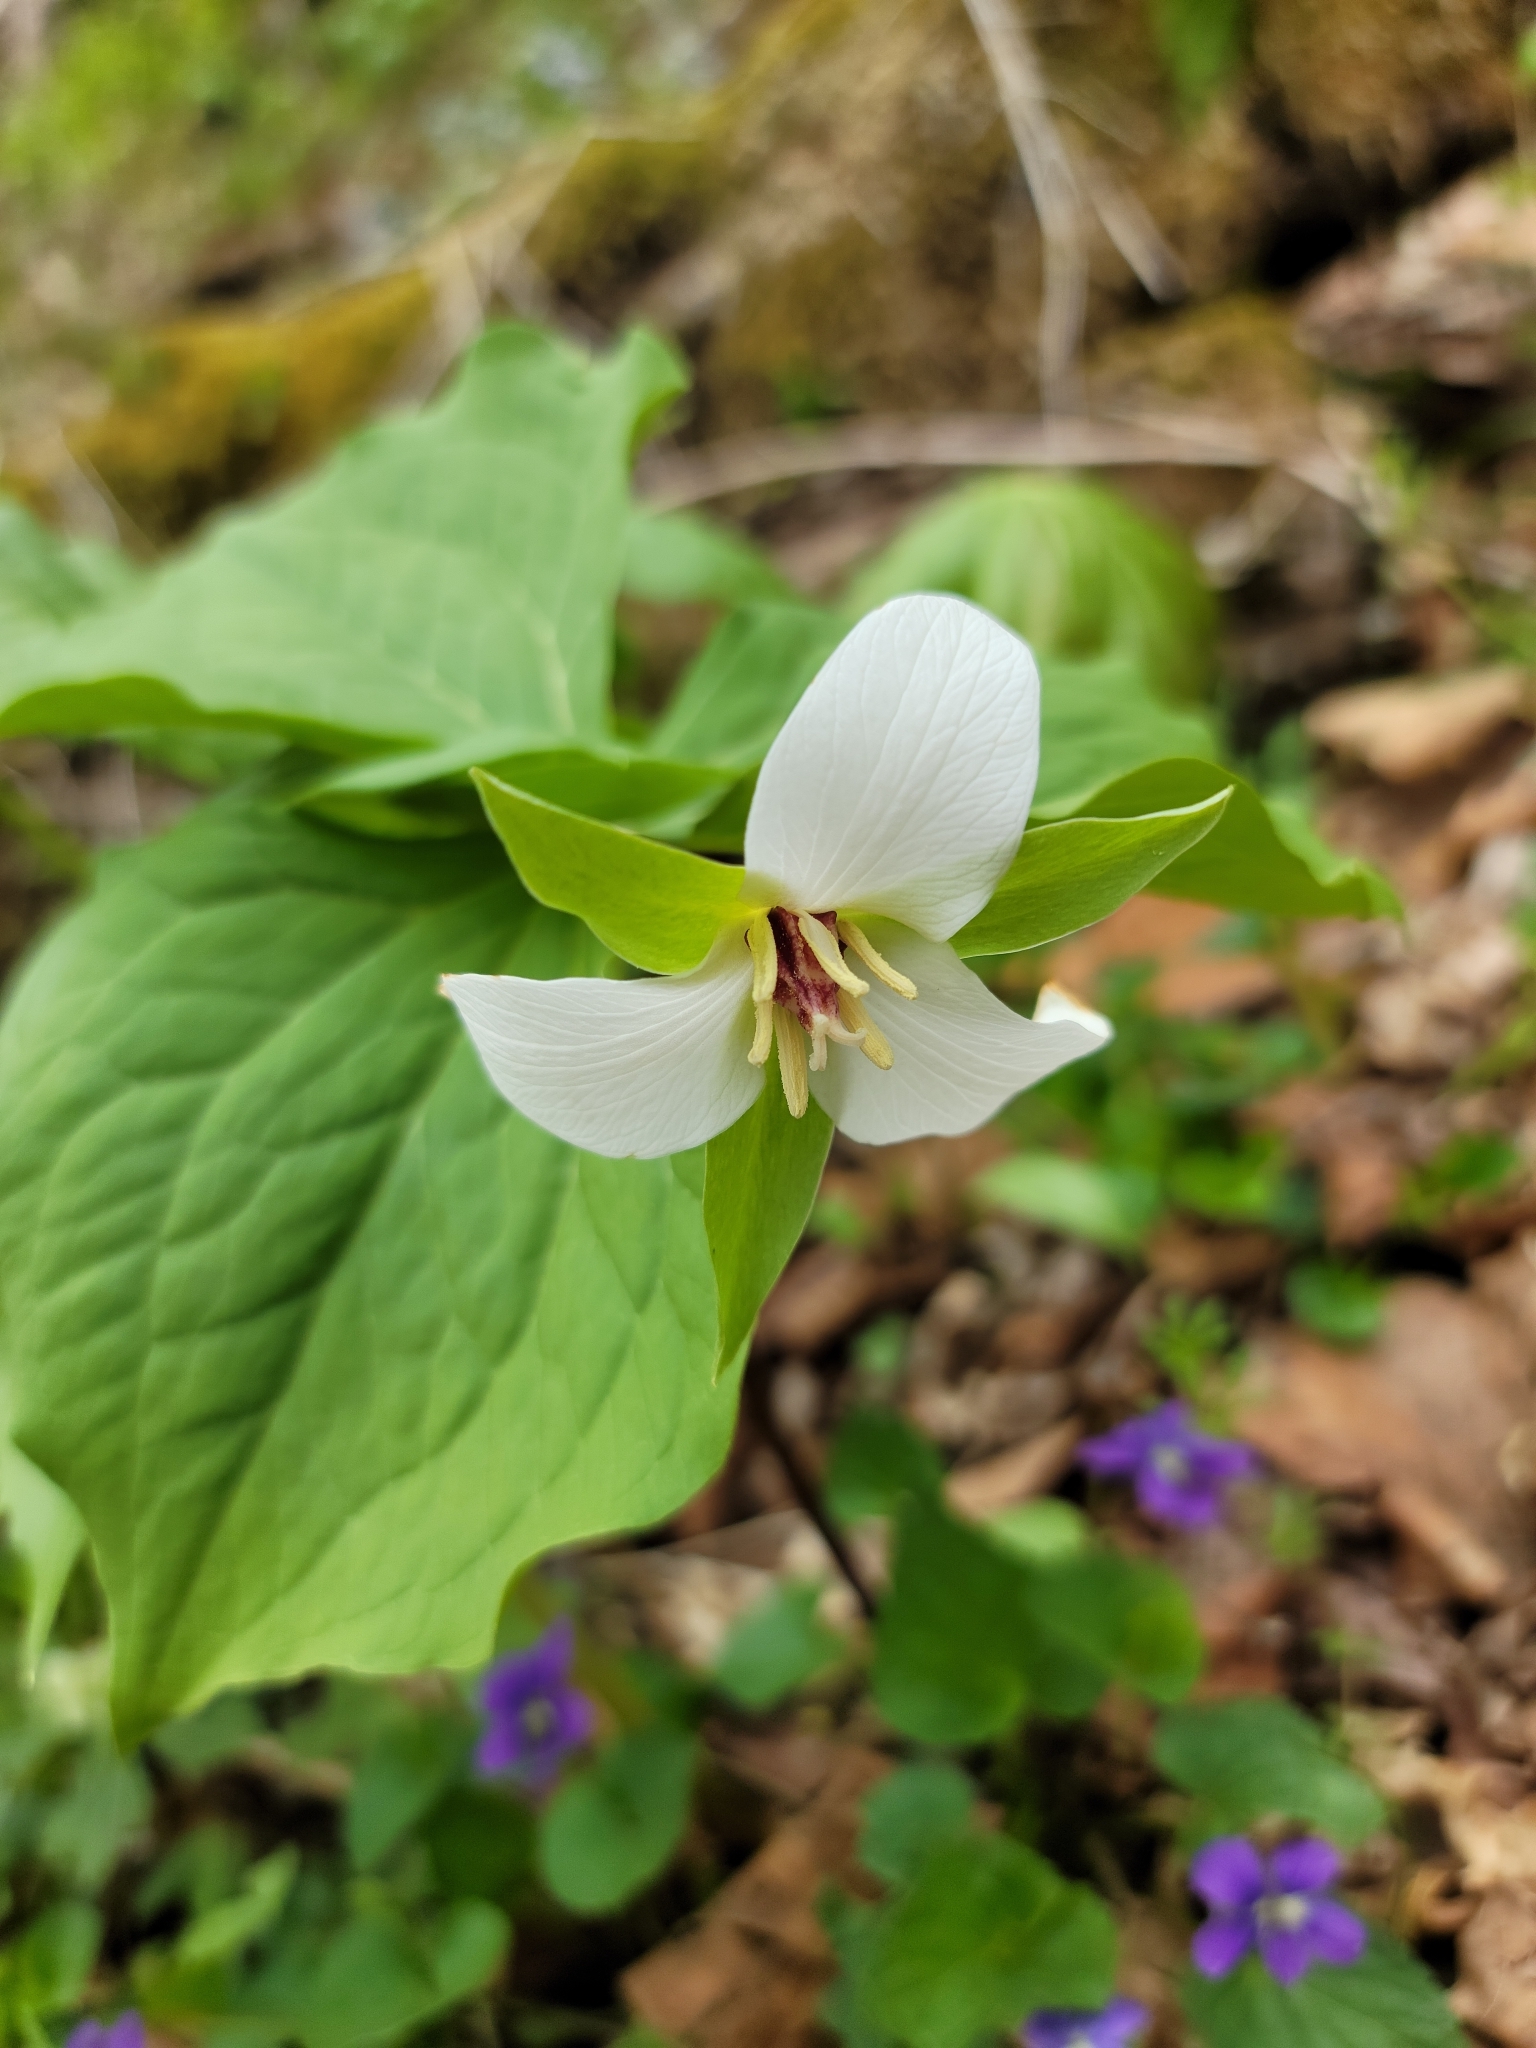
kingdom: Plantae
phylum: Tracheophyta
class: Liliopsida
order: Liliales
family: Melanthiaceae
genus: Trillium
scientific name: Trillium flexipes
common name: Drooping trillium
